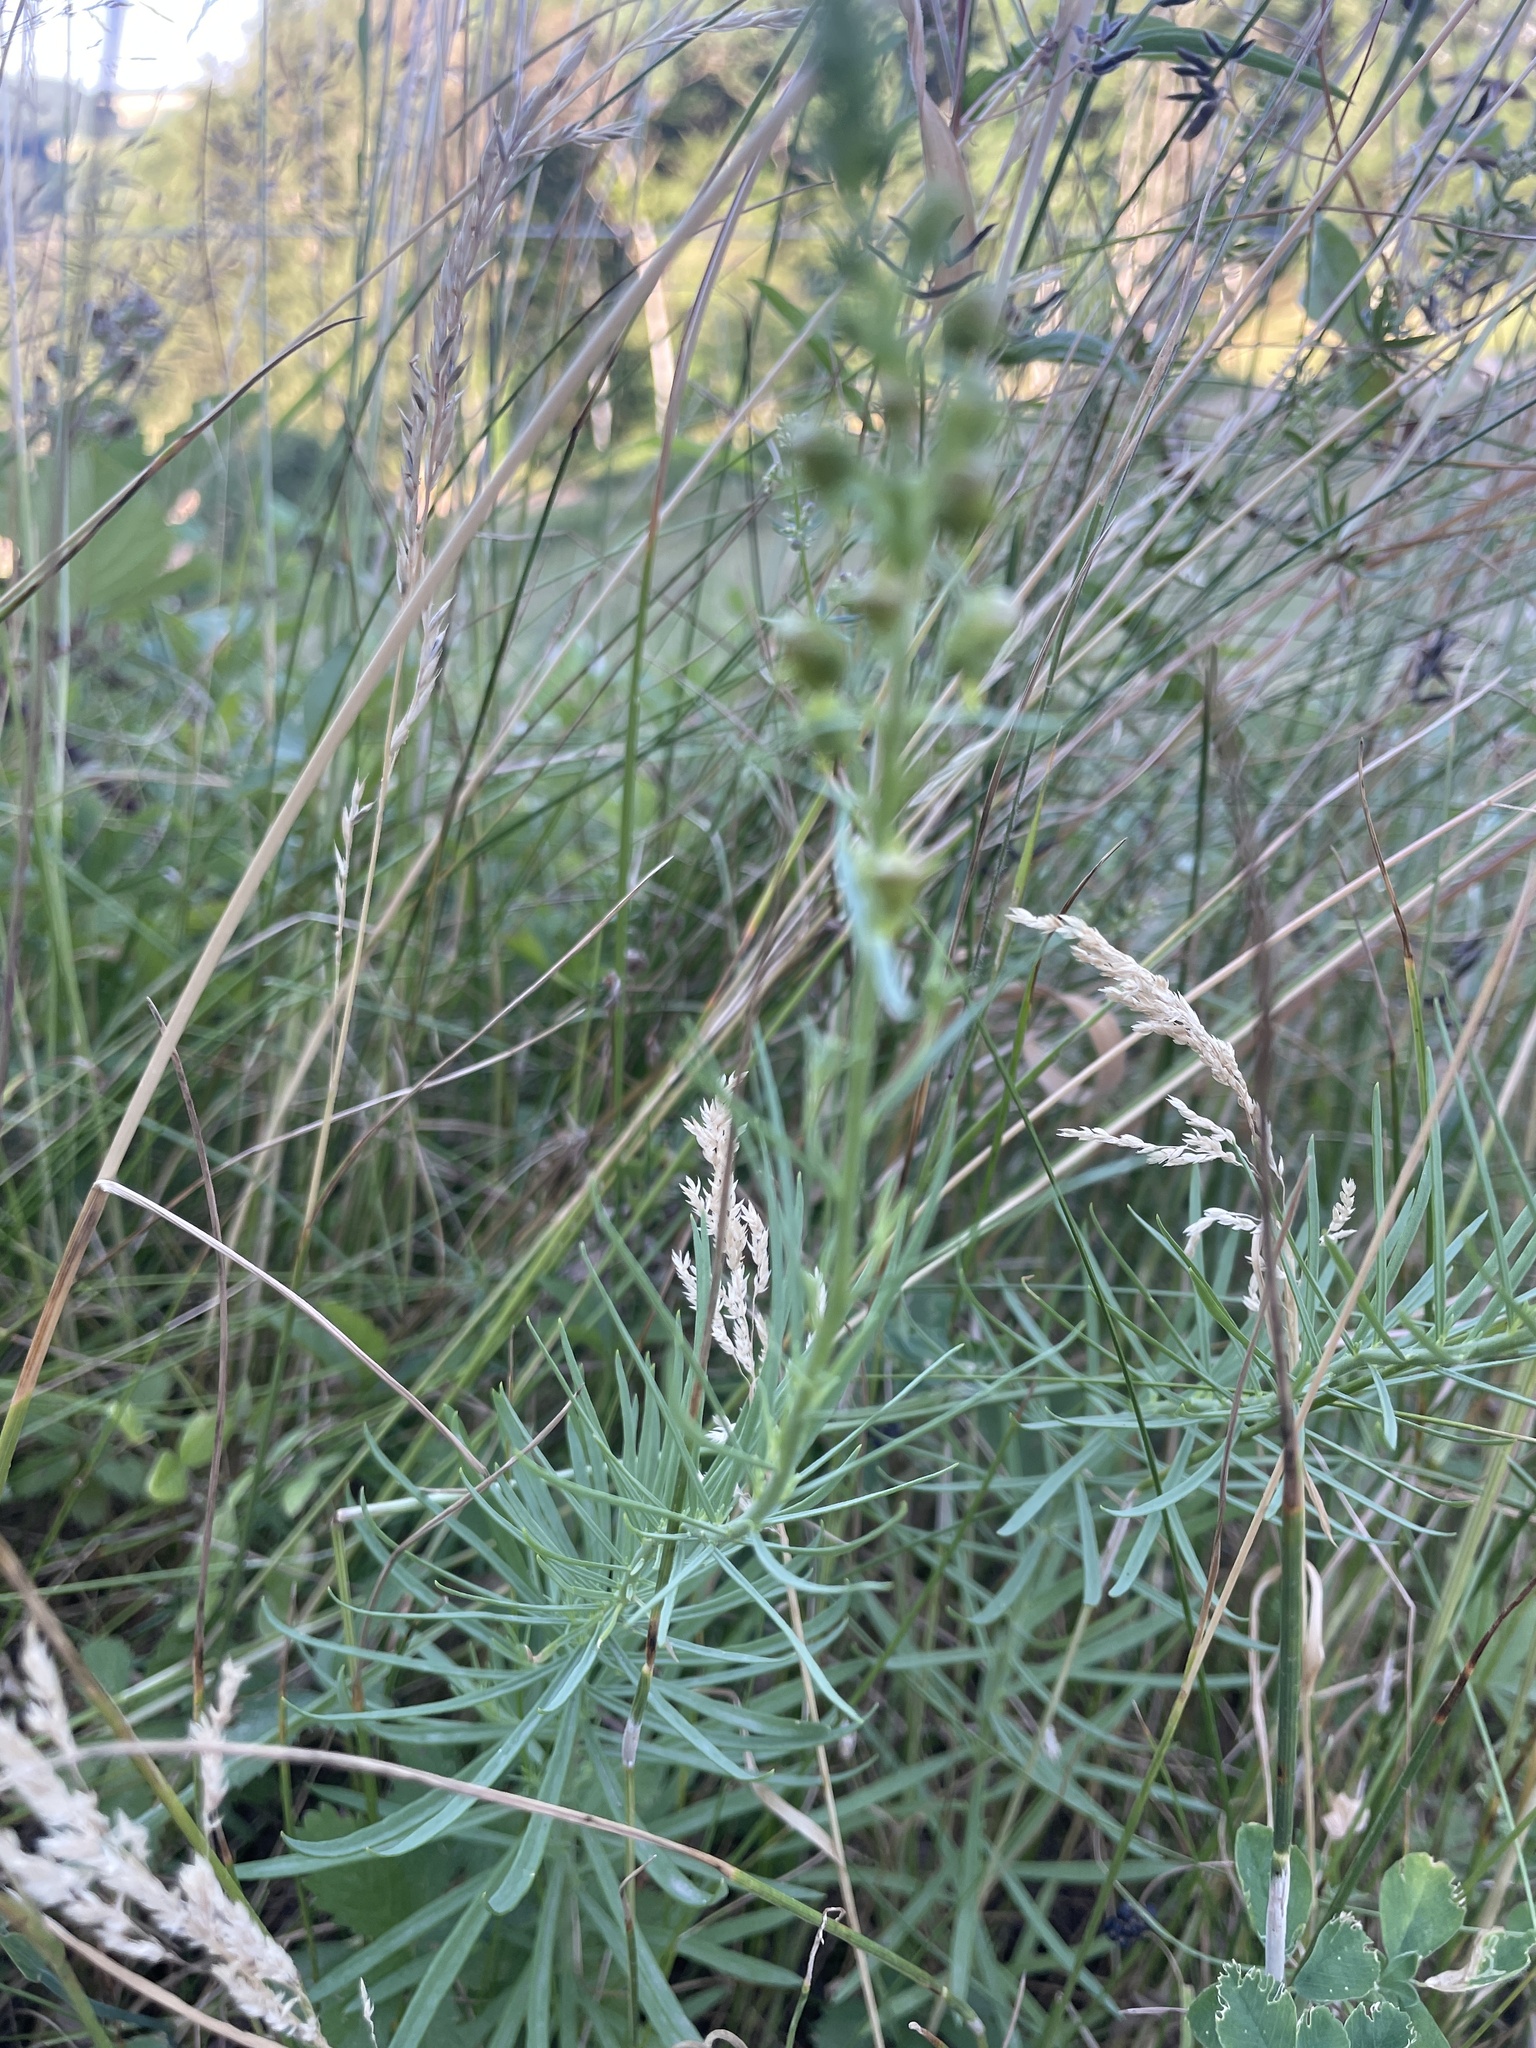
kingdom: Plantae
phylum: Tracheophyta
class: Magnoliopsida
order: Lamiales
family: Plantaginaceae
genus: Linaria
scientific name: Linaria vulgaris
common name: Butter and eggs
